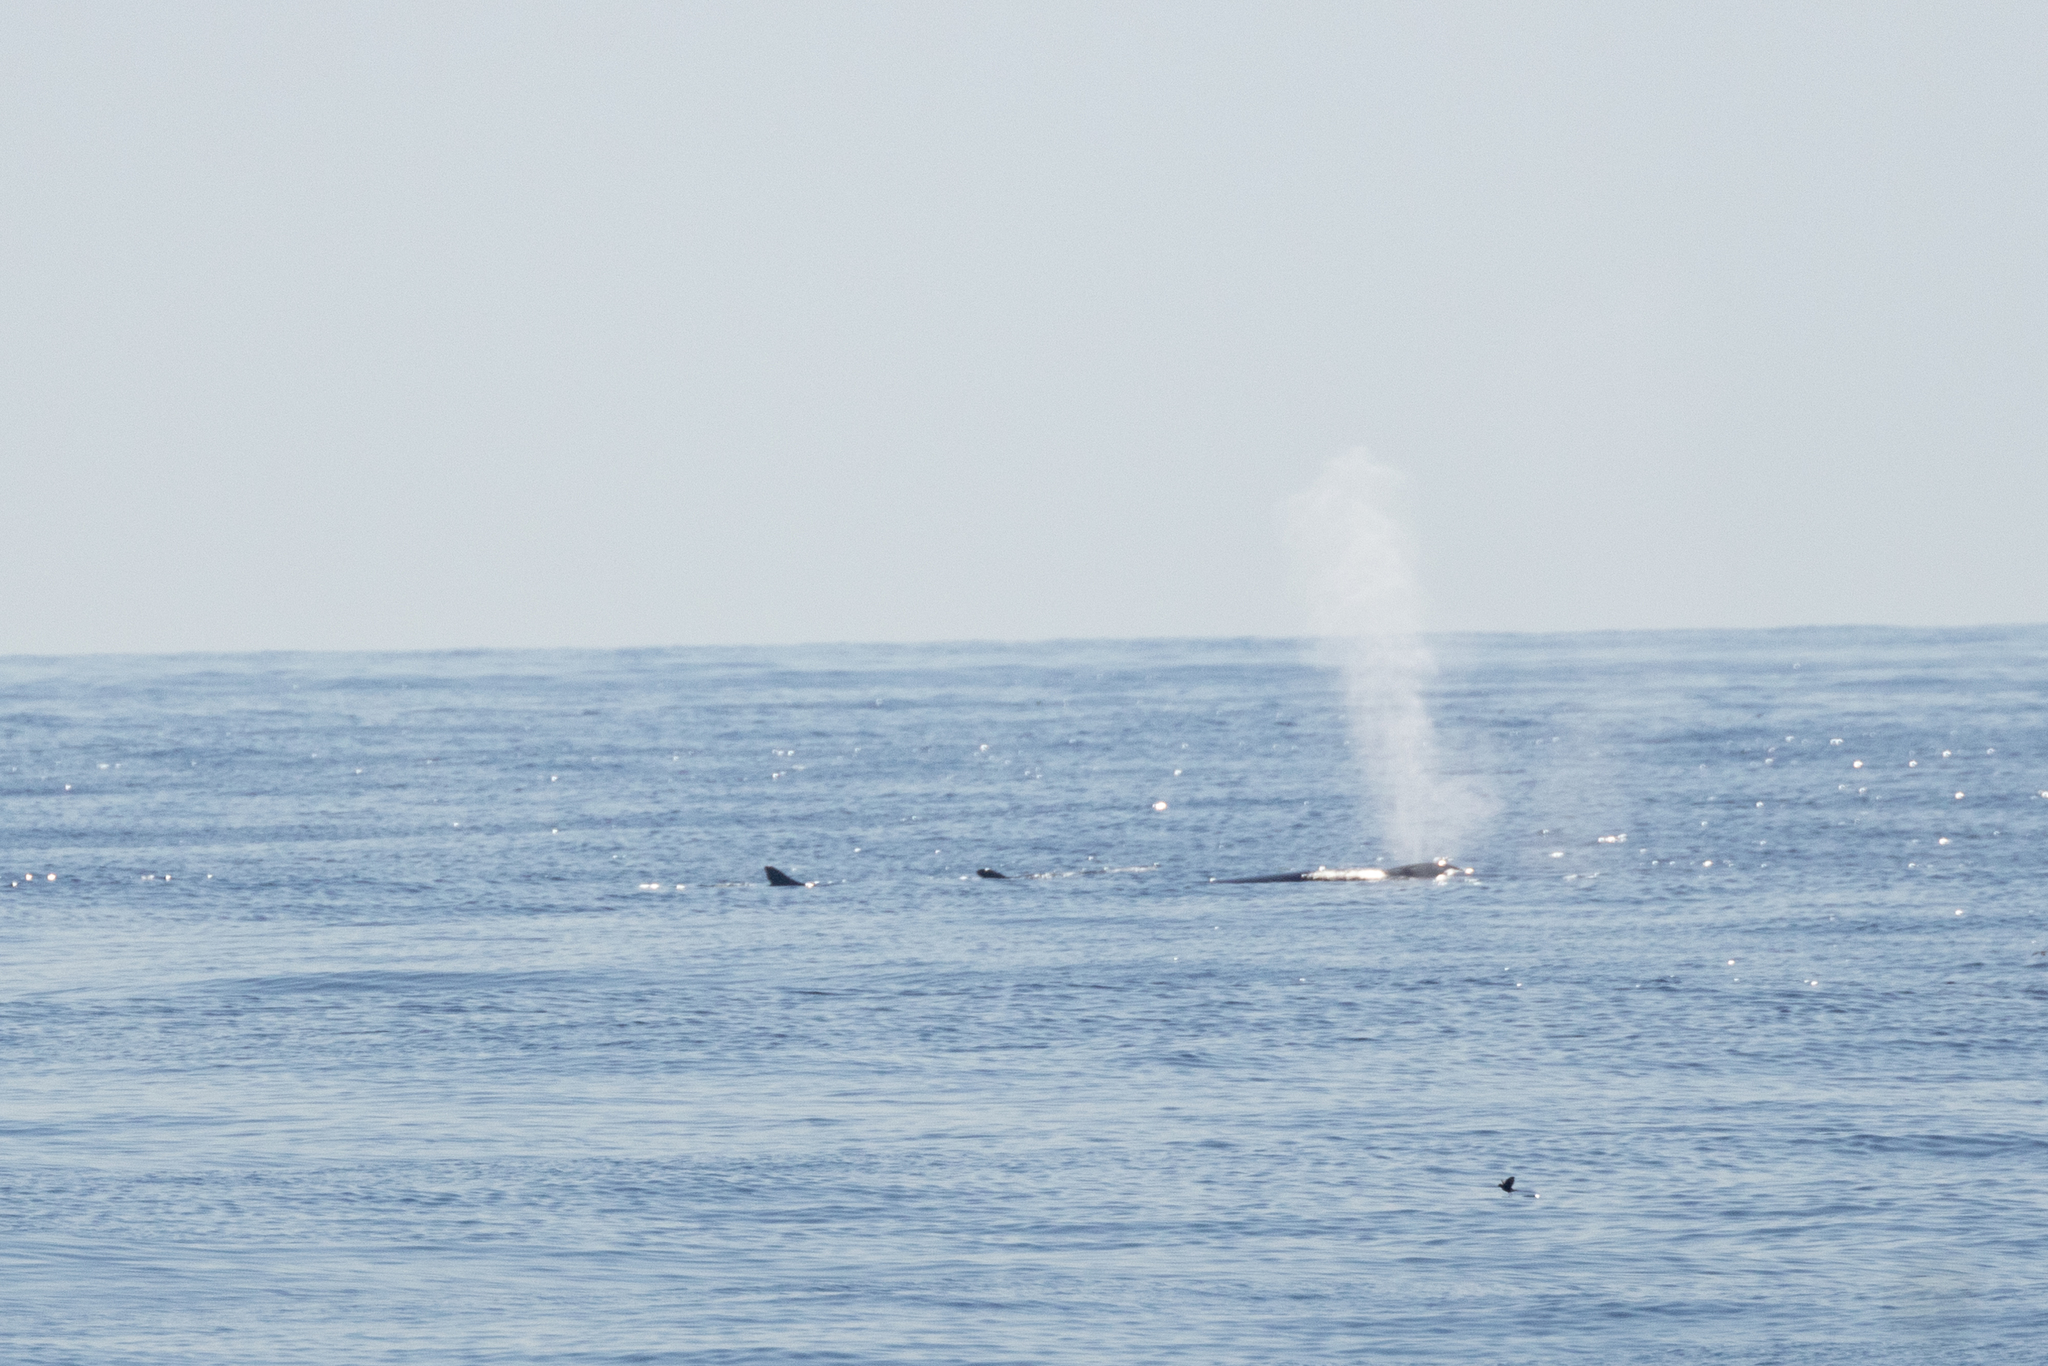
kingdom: Animalia
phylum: Chordata
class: Mammalia
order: Cetacea
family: Balaenopteridae
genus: Balaenoptera
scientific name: Balaenoptera physalus
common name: Fin whale
